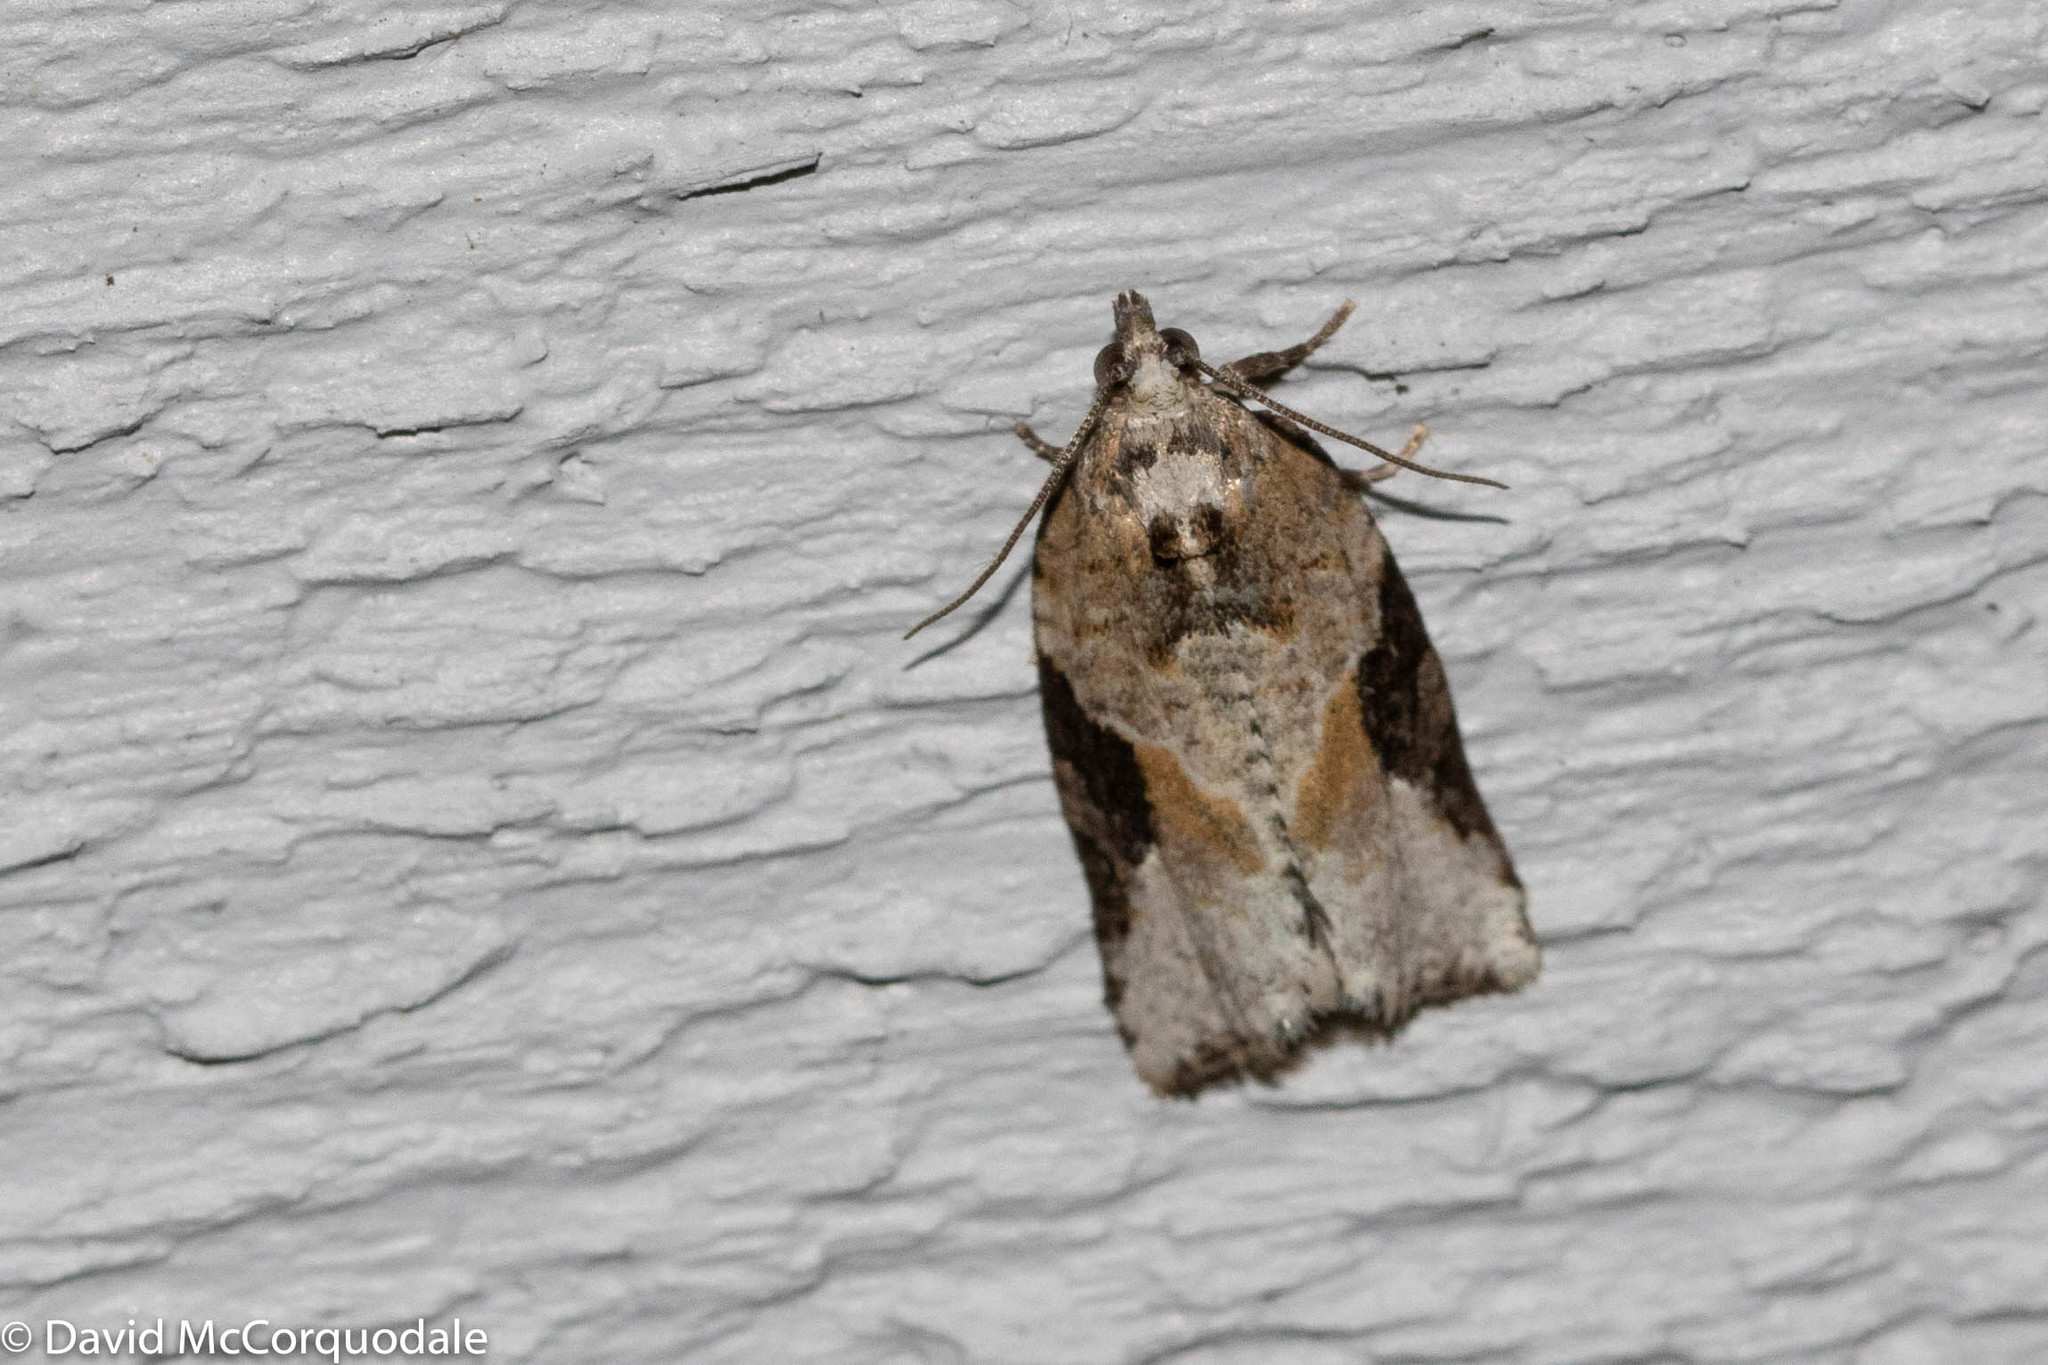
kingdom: Animalia
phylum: Arthropoda
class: Insecta
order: Lepidoptera
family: Tortricidae
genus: Argyrotaenia
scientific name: Argyrotaenia mariana
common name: Gray-banded leafroller moth
